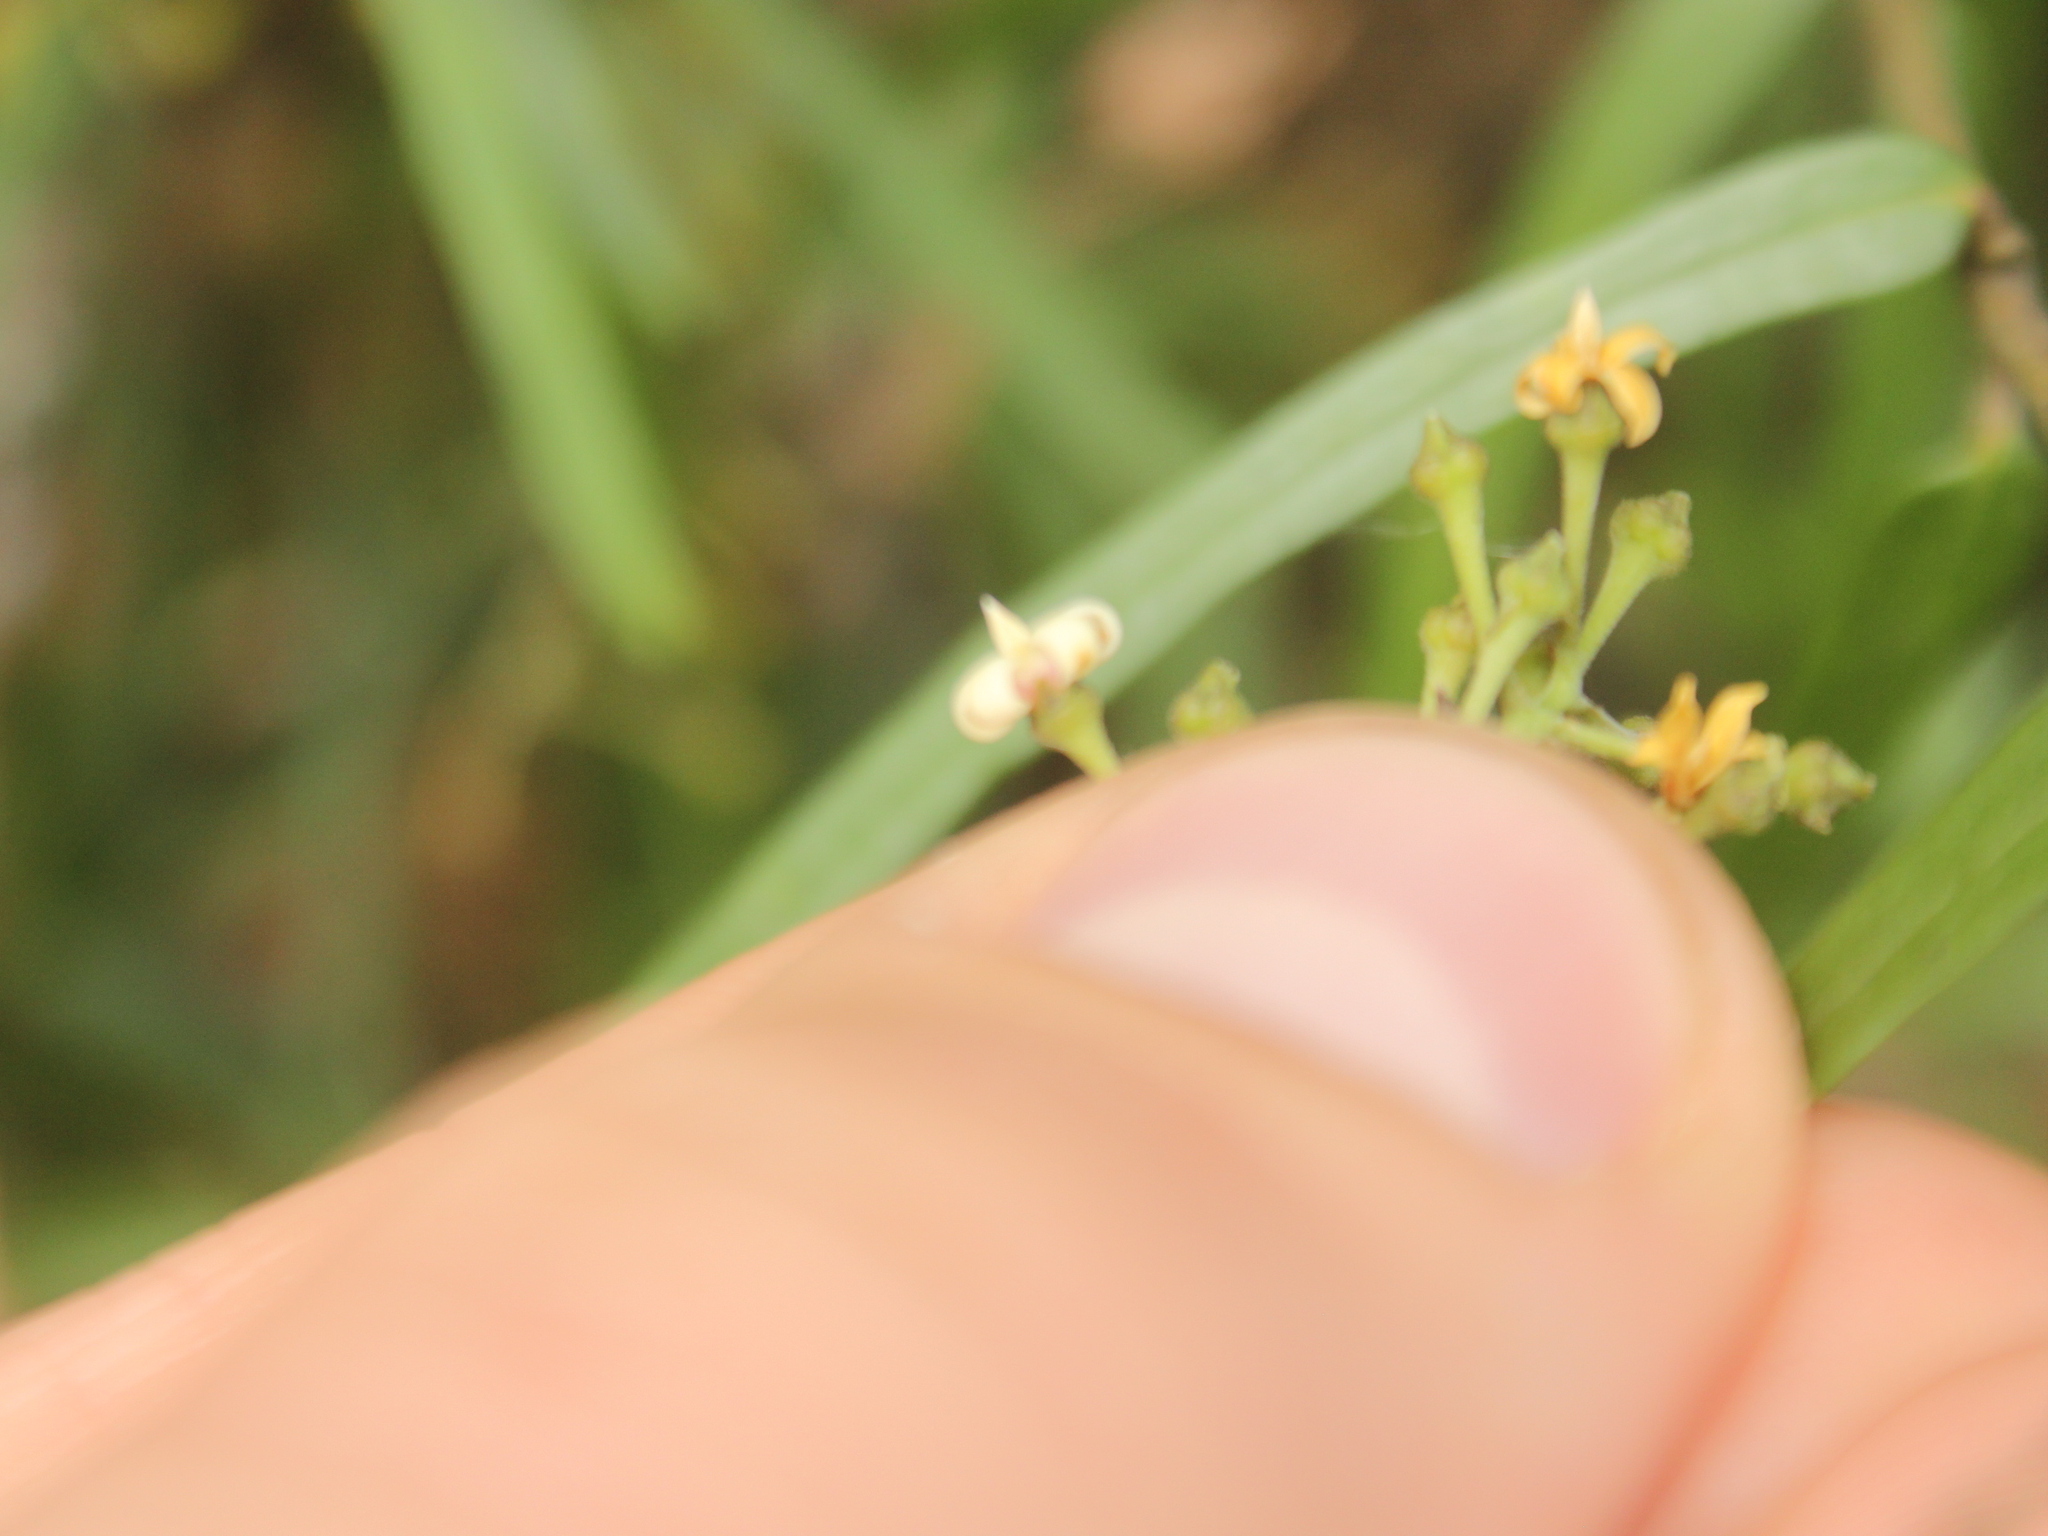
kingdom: Plantae
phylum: Tracheophyta
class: Magnoliopsida
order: Gentianales
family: Apocynaceae
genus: Parsonsia
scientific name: Parsonsia capsularis
